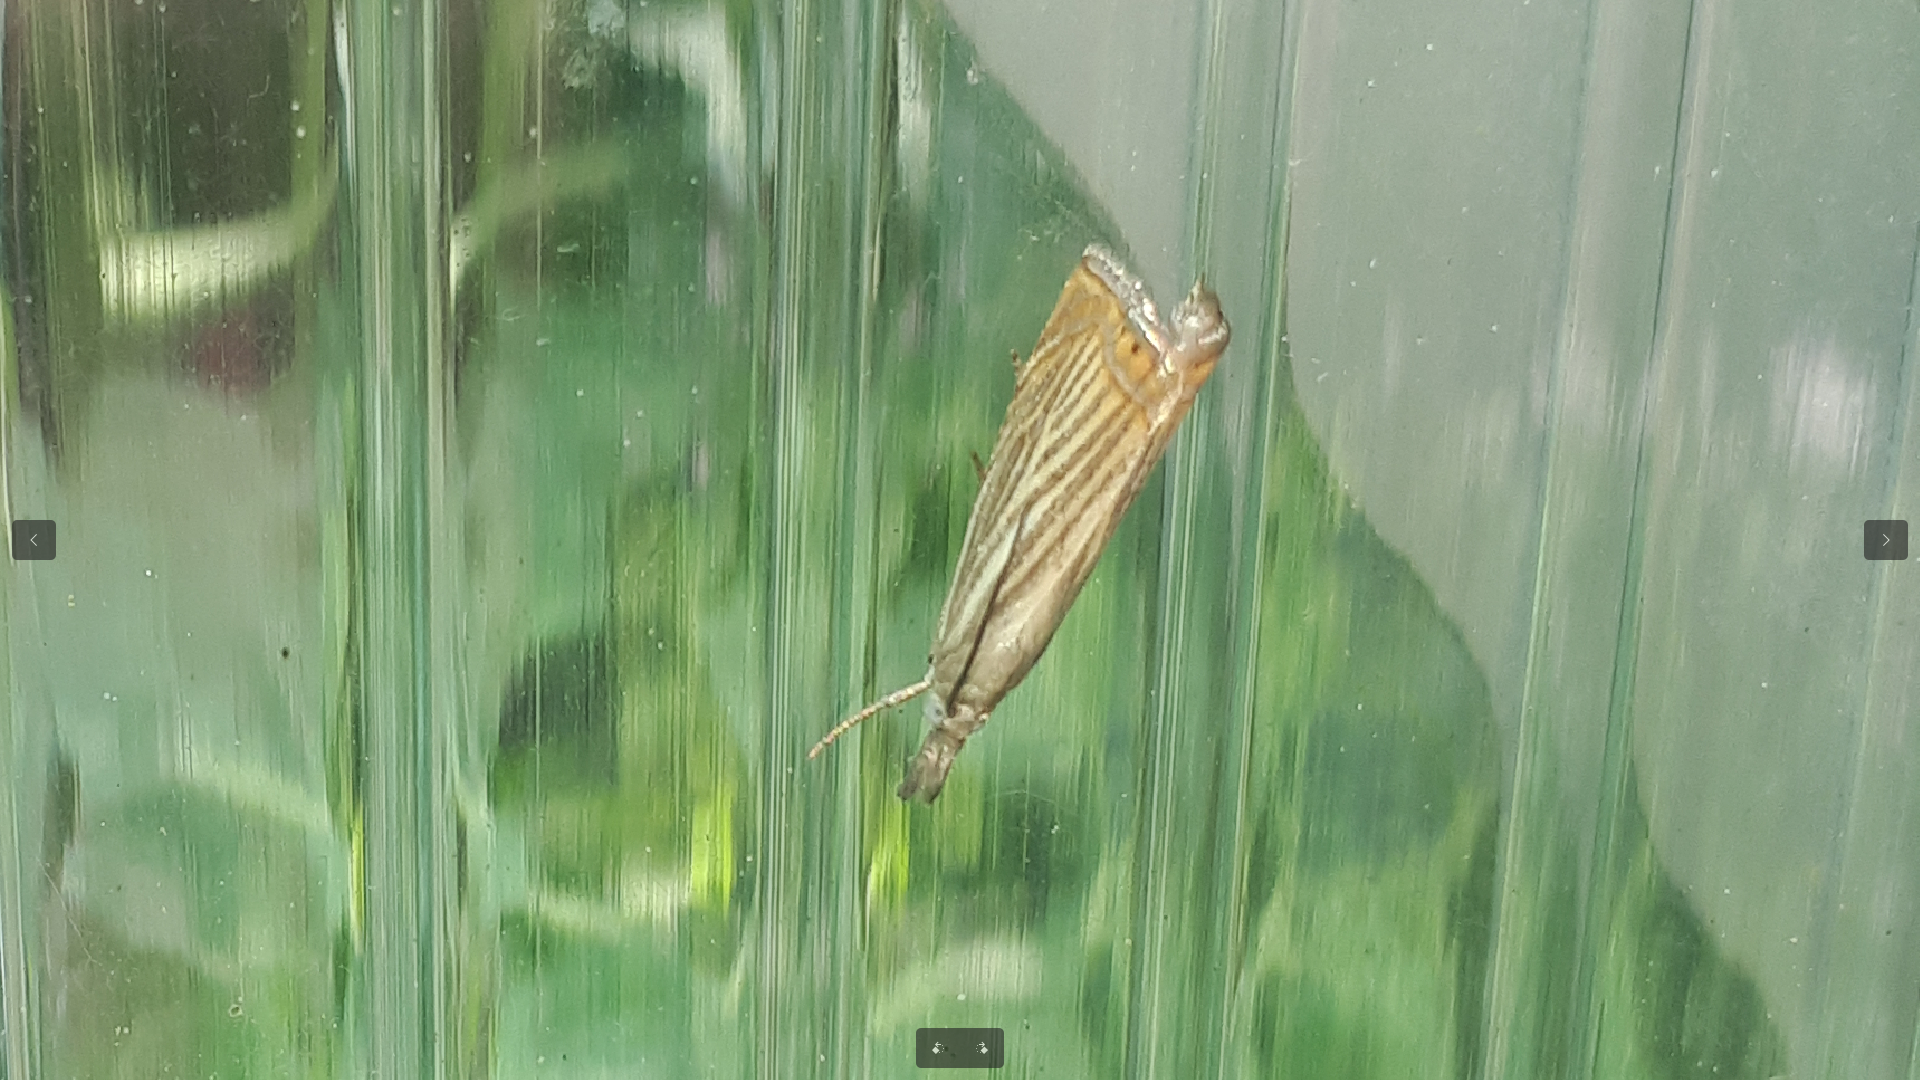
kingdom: Animalia
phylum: Arthropoda
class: Insecta
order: Lepidoptera
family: Crambidae
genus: Chrysoteuchia
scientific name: Chrysoteuchia culmella
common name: Garden grass-veneer
